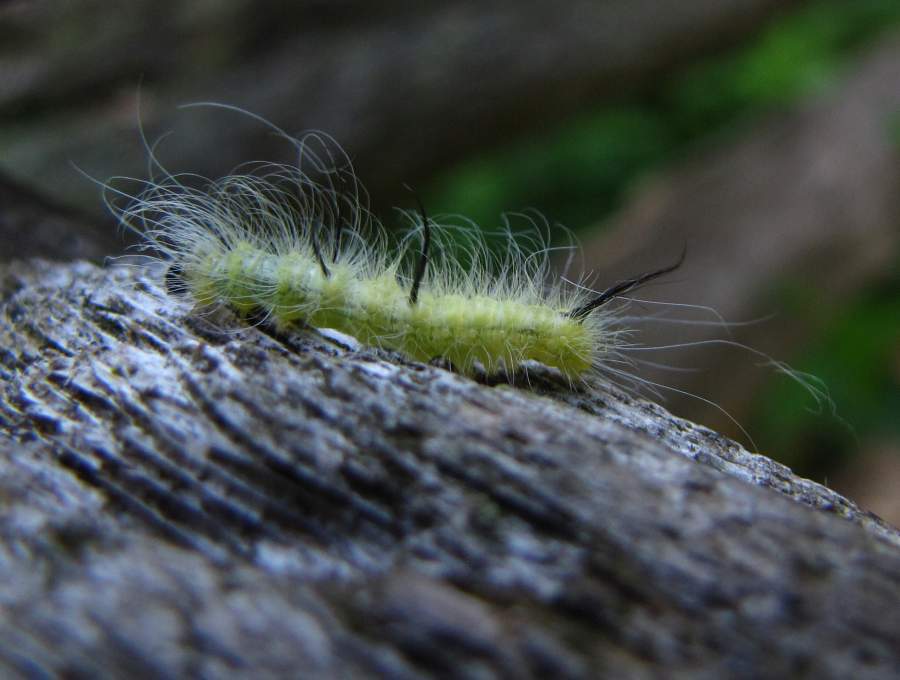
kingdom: Animalia
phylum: Arthropoda
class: Insecta
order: Lepidoptera
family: Noctuidae
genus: Acronicta
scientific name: Acronicta americana
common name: American dagger
